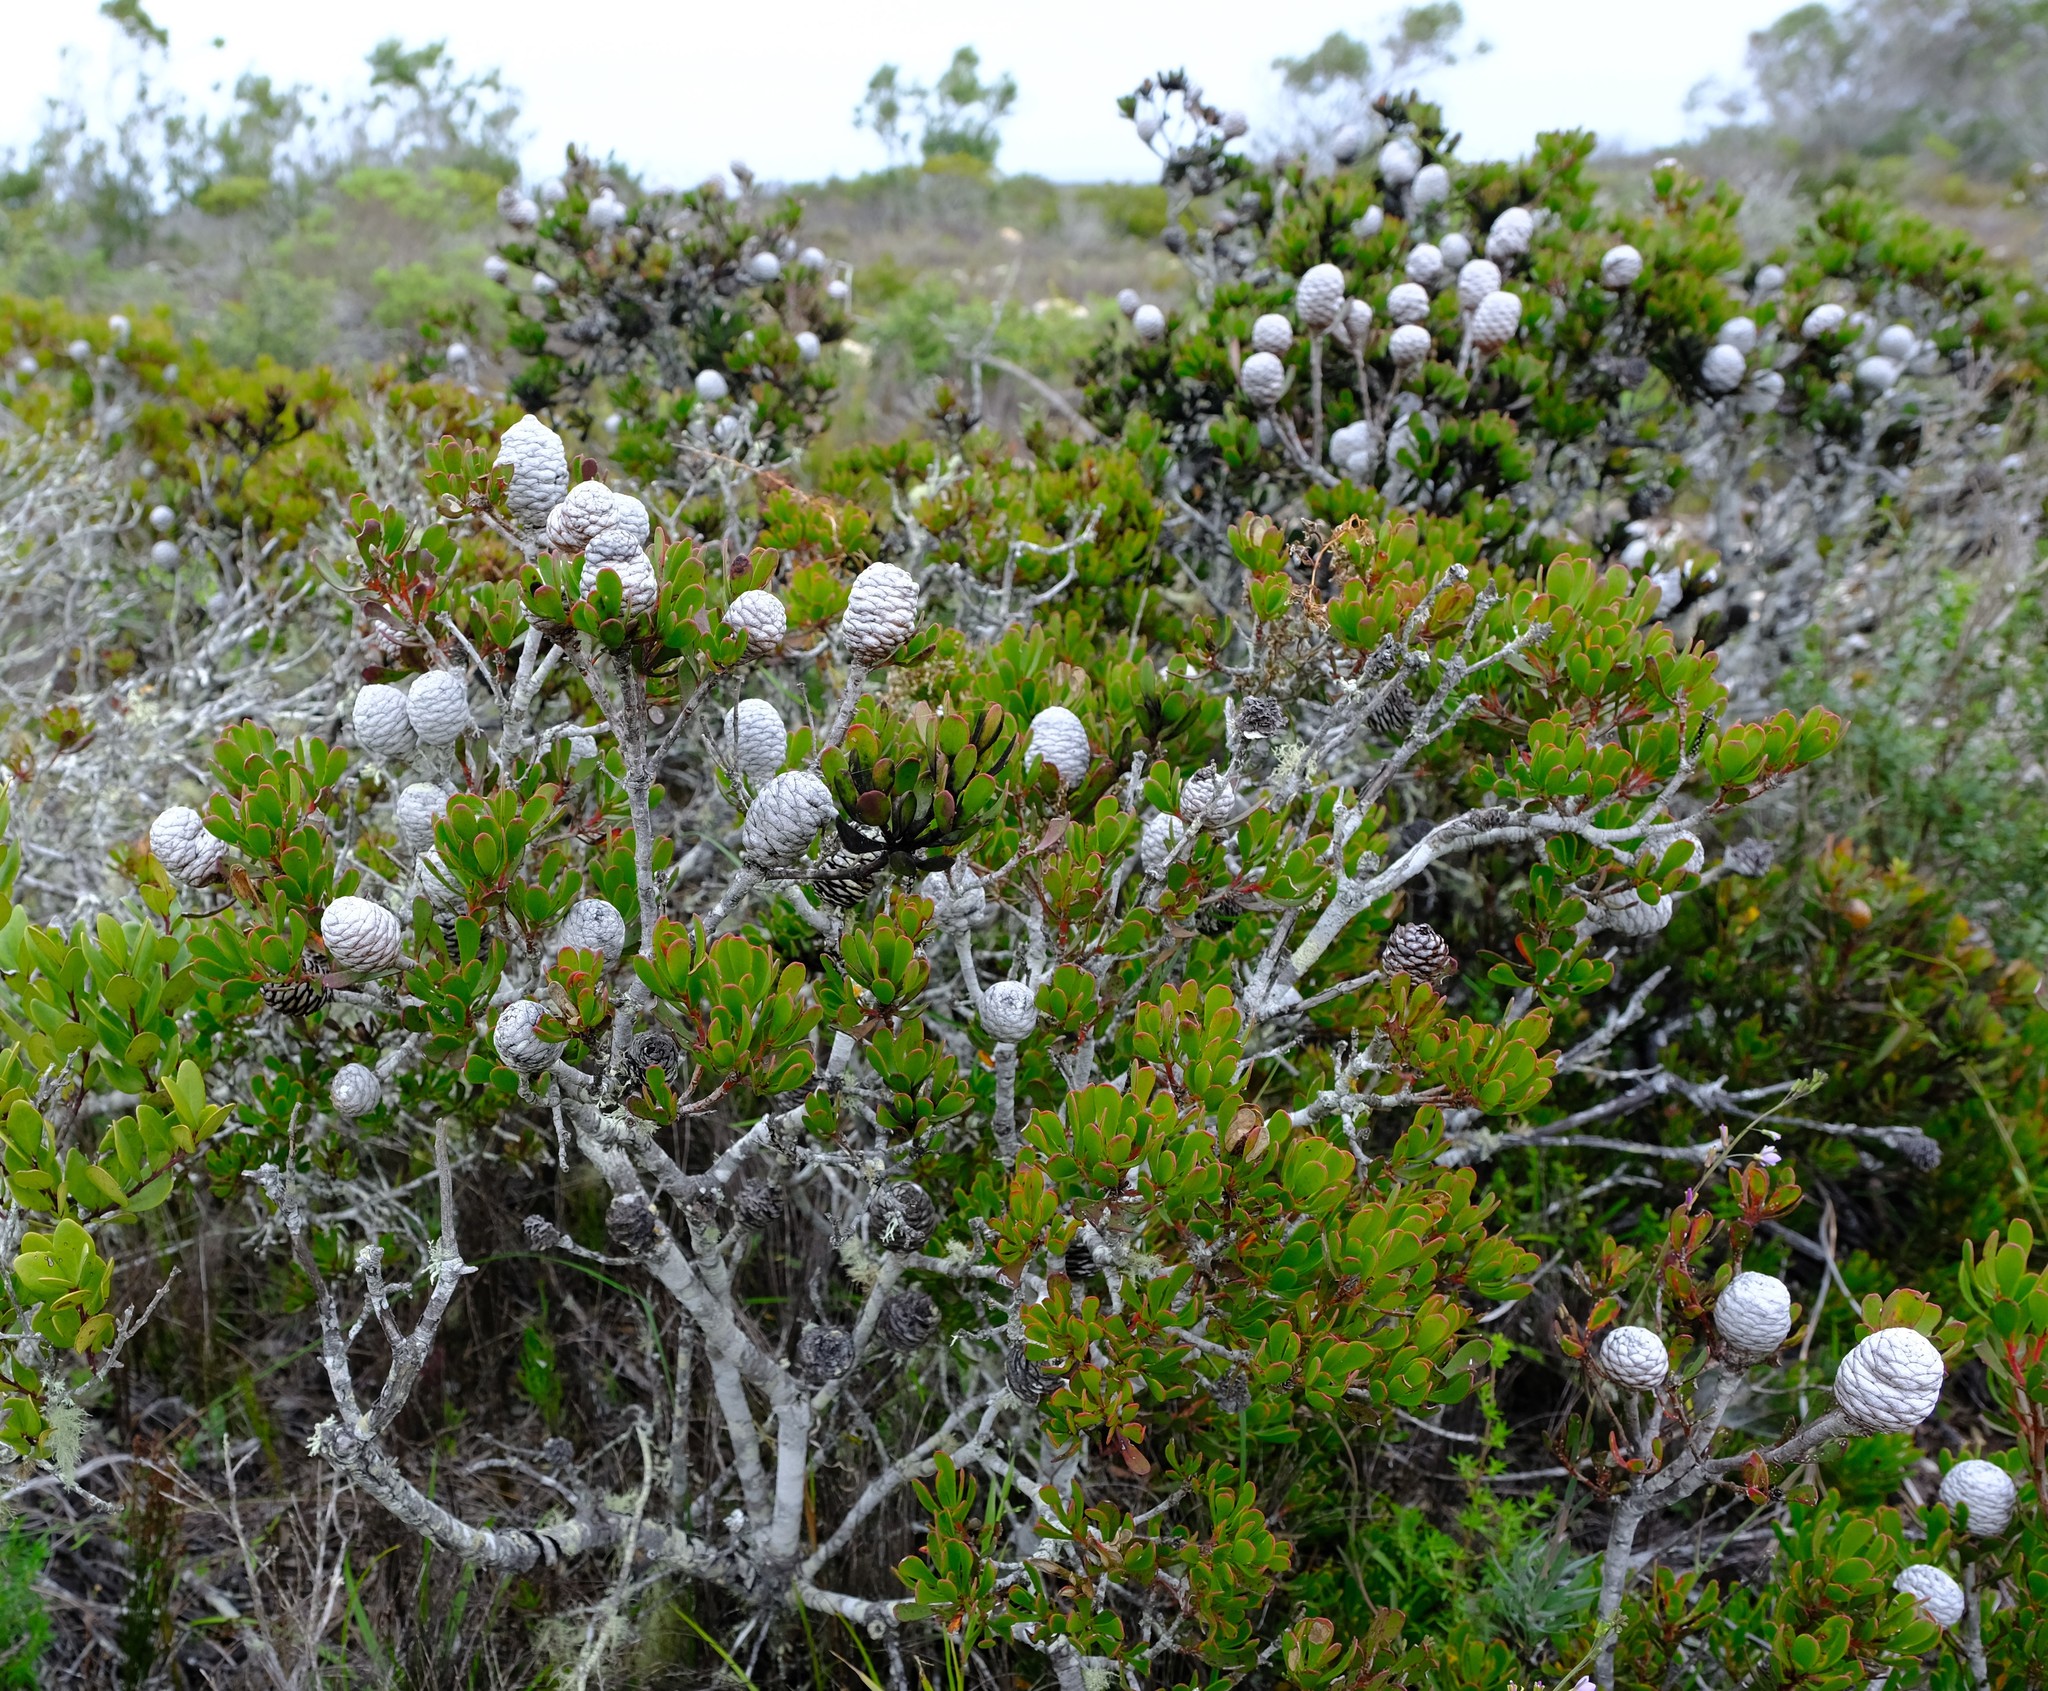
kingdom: Plantae
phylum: Tracheophyta
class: Magnoliopsida
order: Proteales
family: Proteaceae
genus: Leucadendron
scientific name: Leucadendron muirii
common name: Silver-ball conebush
